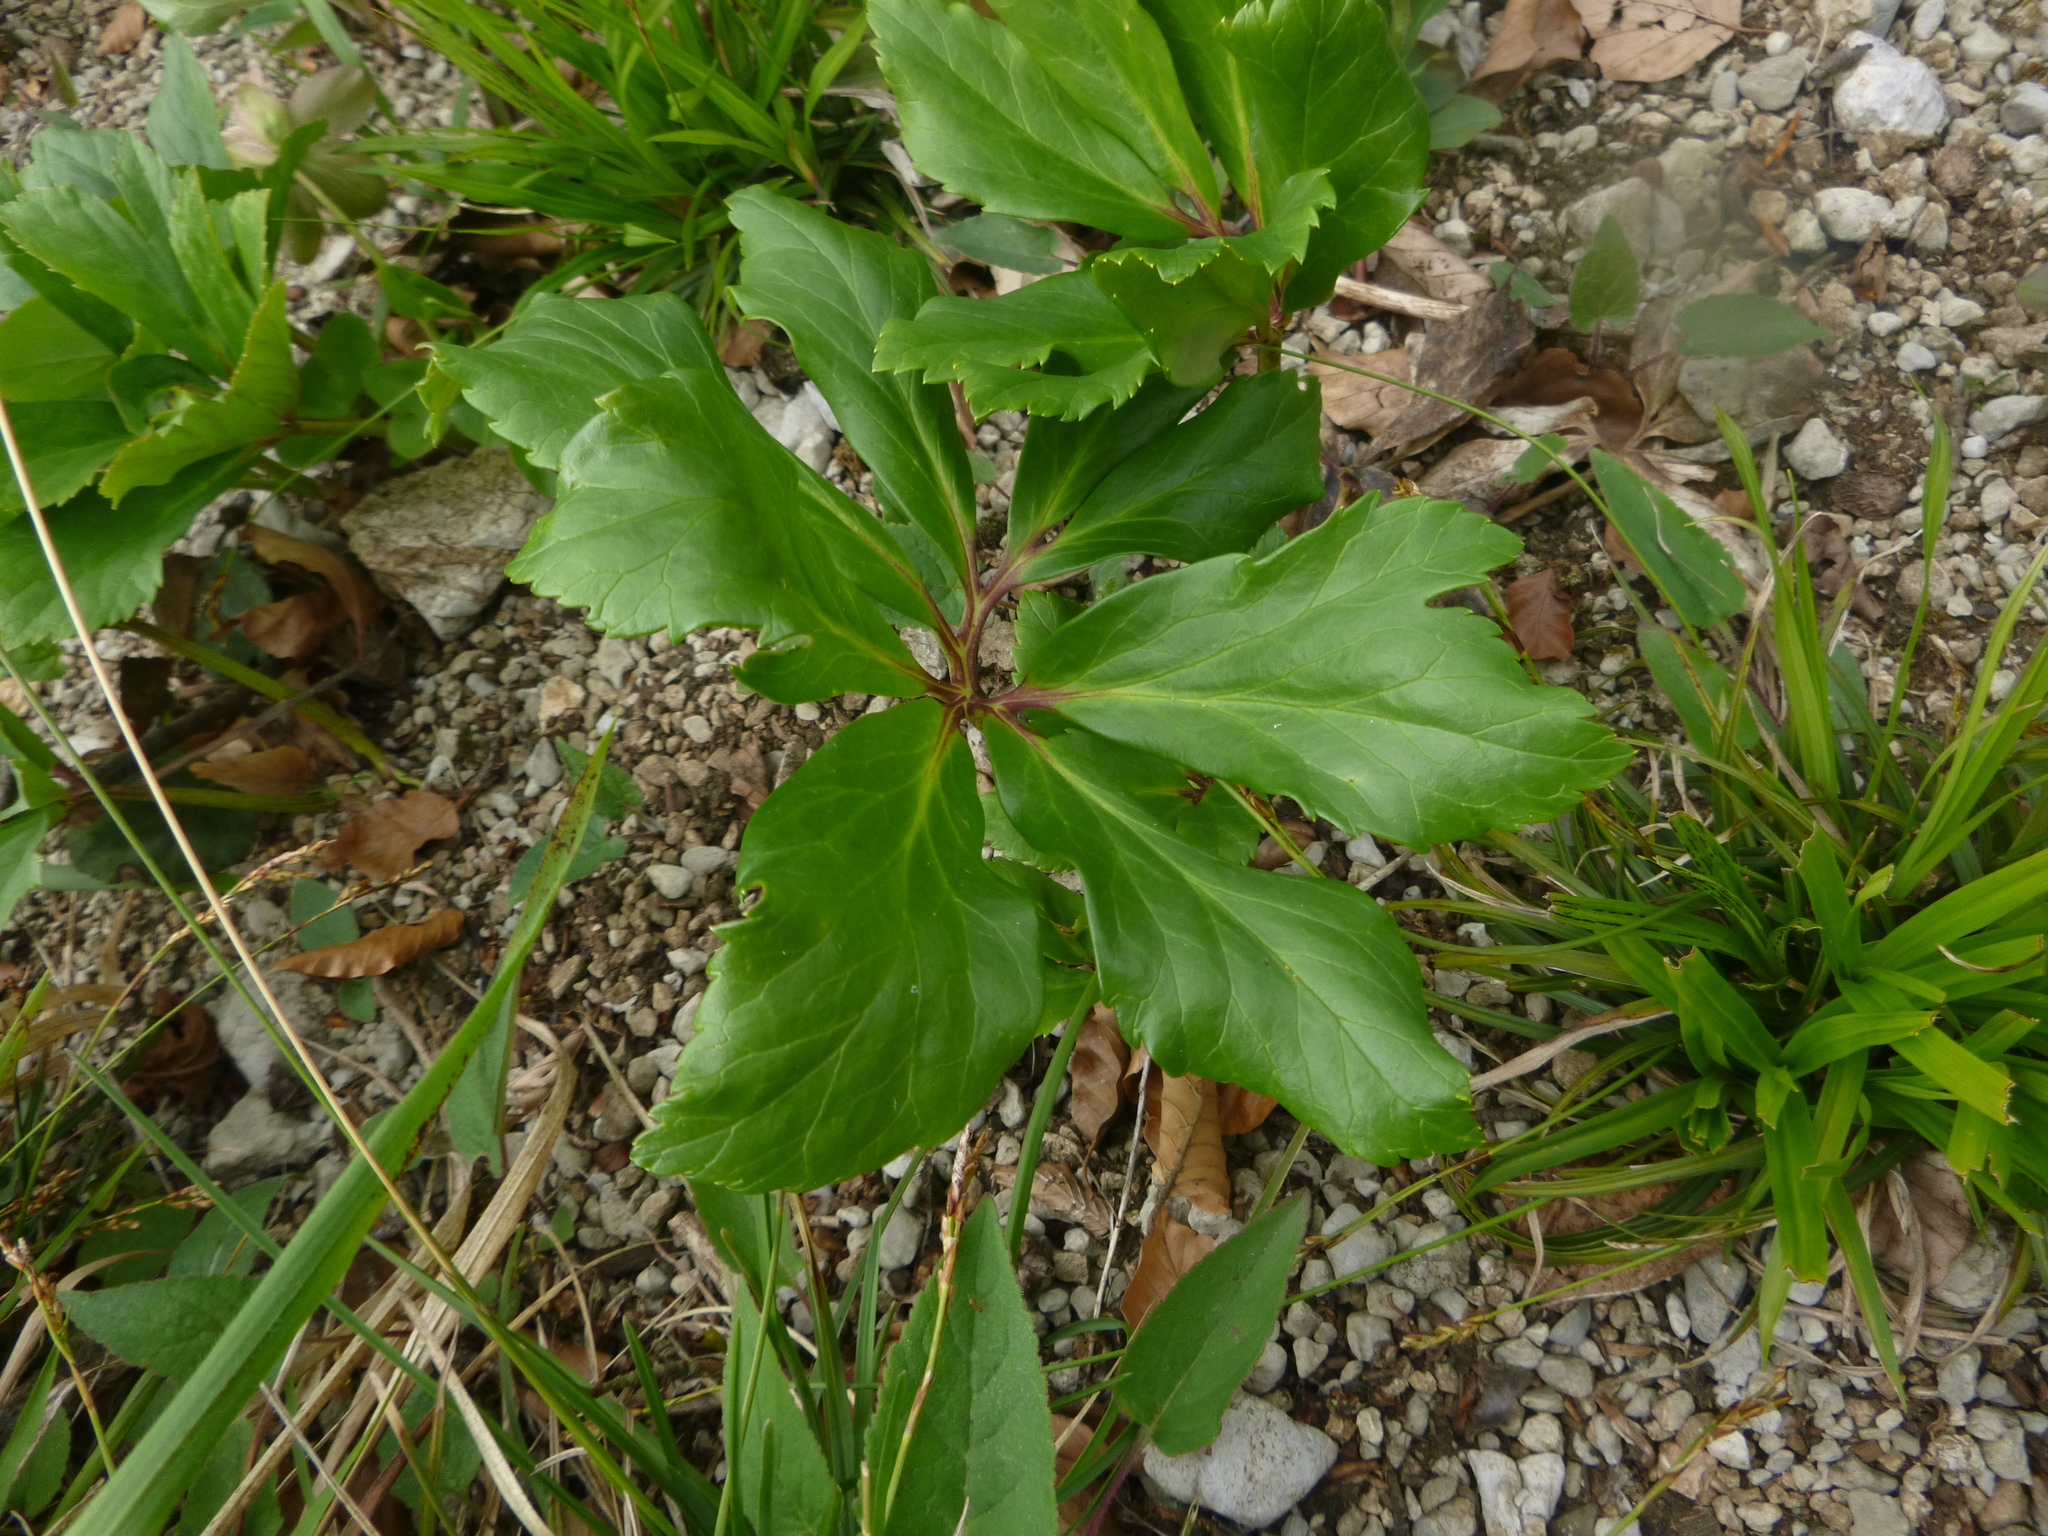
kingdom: Plantae
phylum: Tracheophyta
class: Magnoliopsida
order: Ranunculales
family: Ranunculaceae
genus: Helleborus
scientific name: Helleborus niger
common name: Black hellebore
